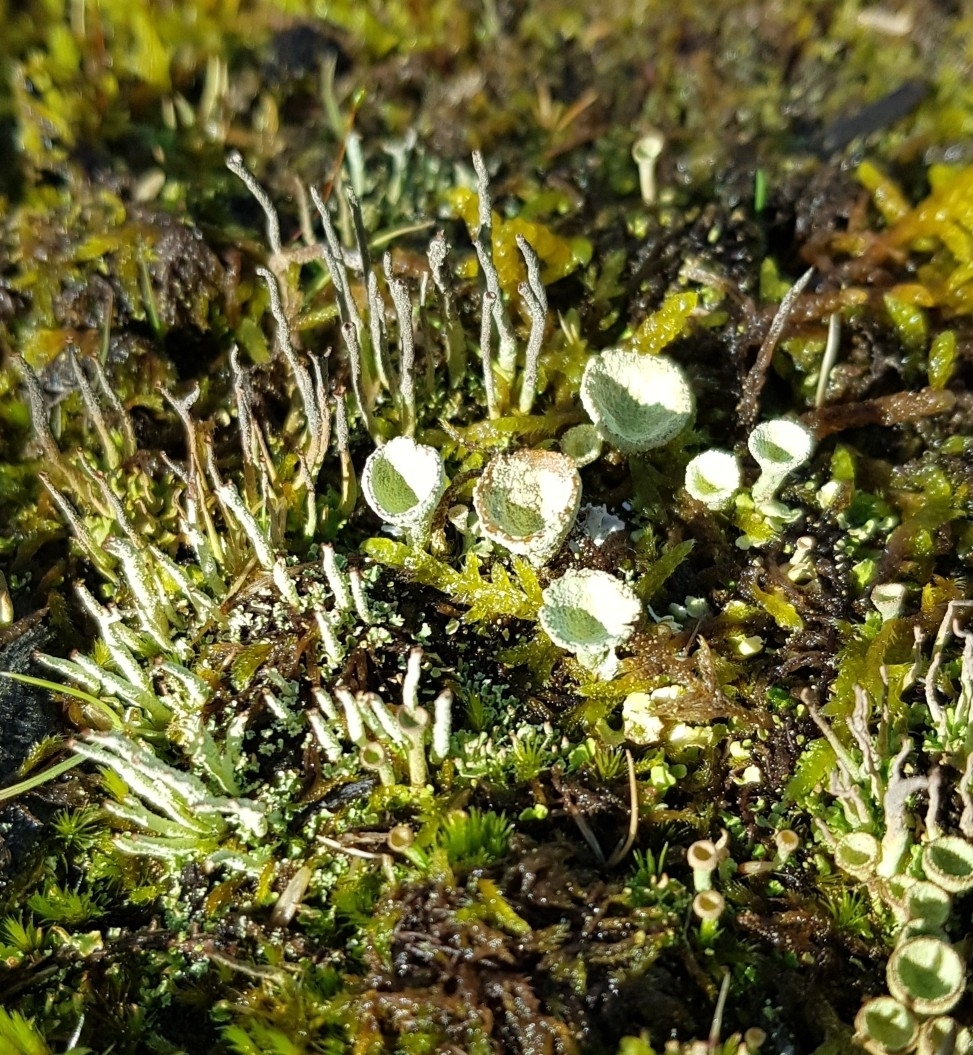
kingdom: Fungi
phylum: Ascomycota
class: Lecanoromycetes
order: Lecanorales
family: Cladoniaceae
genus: Cladonia
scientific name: Cladonia
